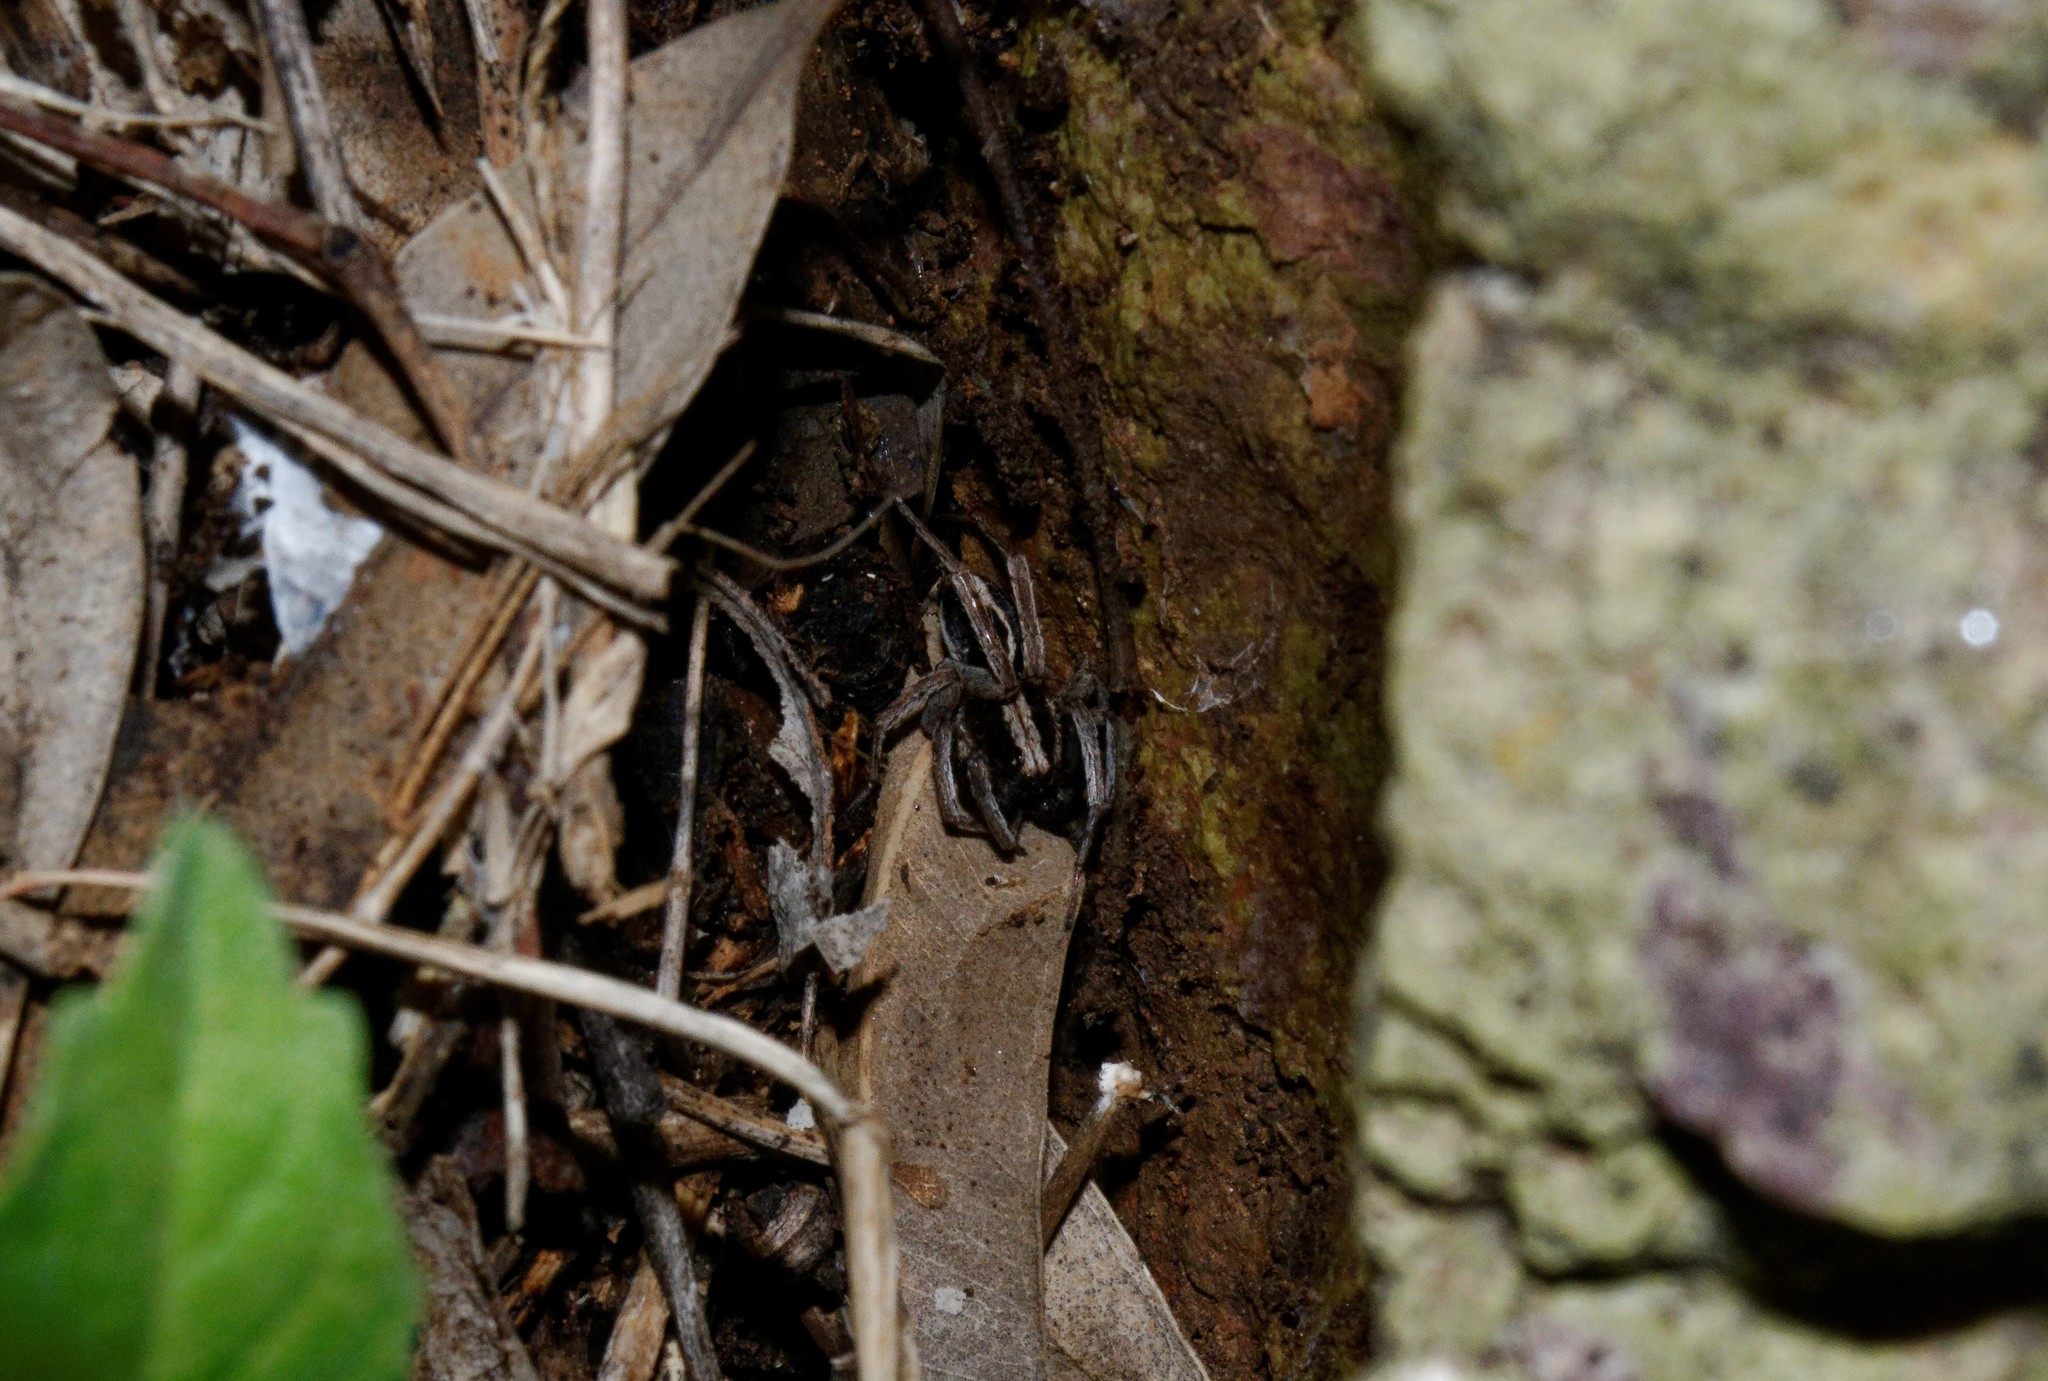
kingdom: Animalia
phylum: Arthropoda
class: Arachnida
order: Araneae
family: Lycosidae
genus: Alopecosa
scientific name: Alopecosa albofasciata
